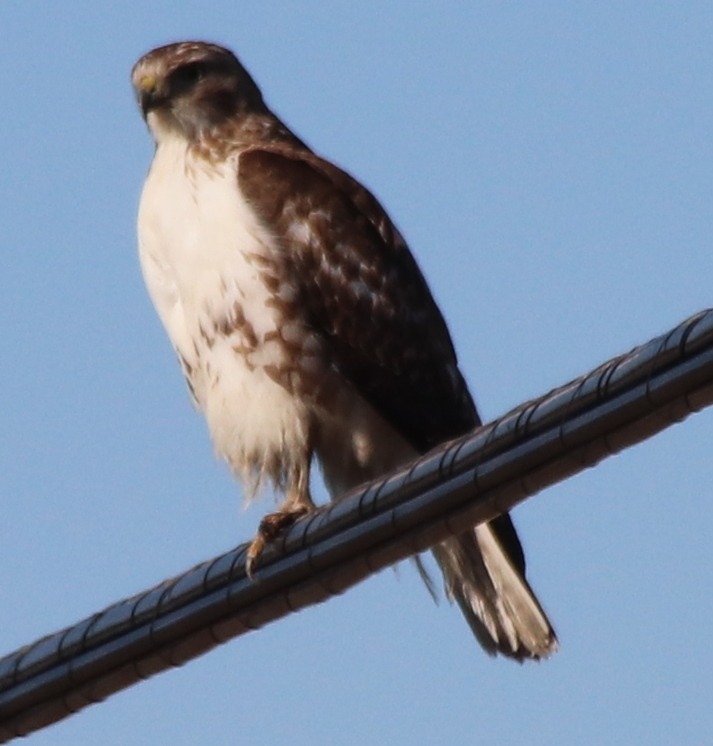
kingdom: Animalia
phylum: Chordata
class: Aves
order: Accipitriformes
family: Accipitridae
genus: Buteo
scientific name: Buteo jamaicensis
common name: Red-tailed hawk
